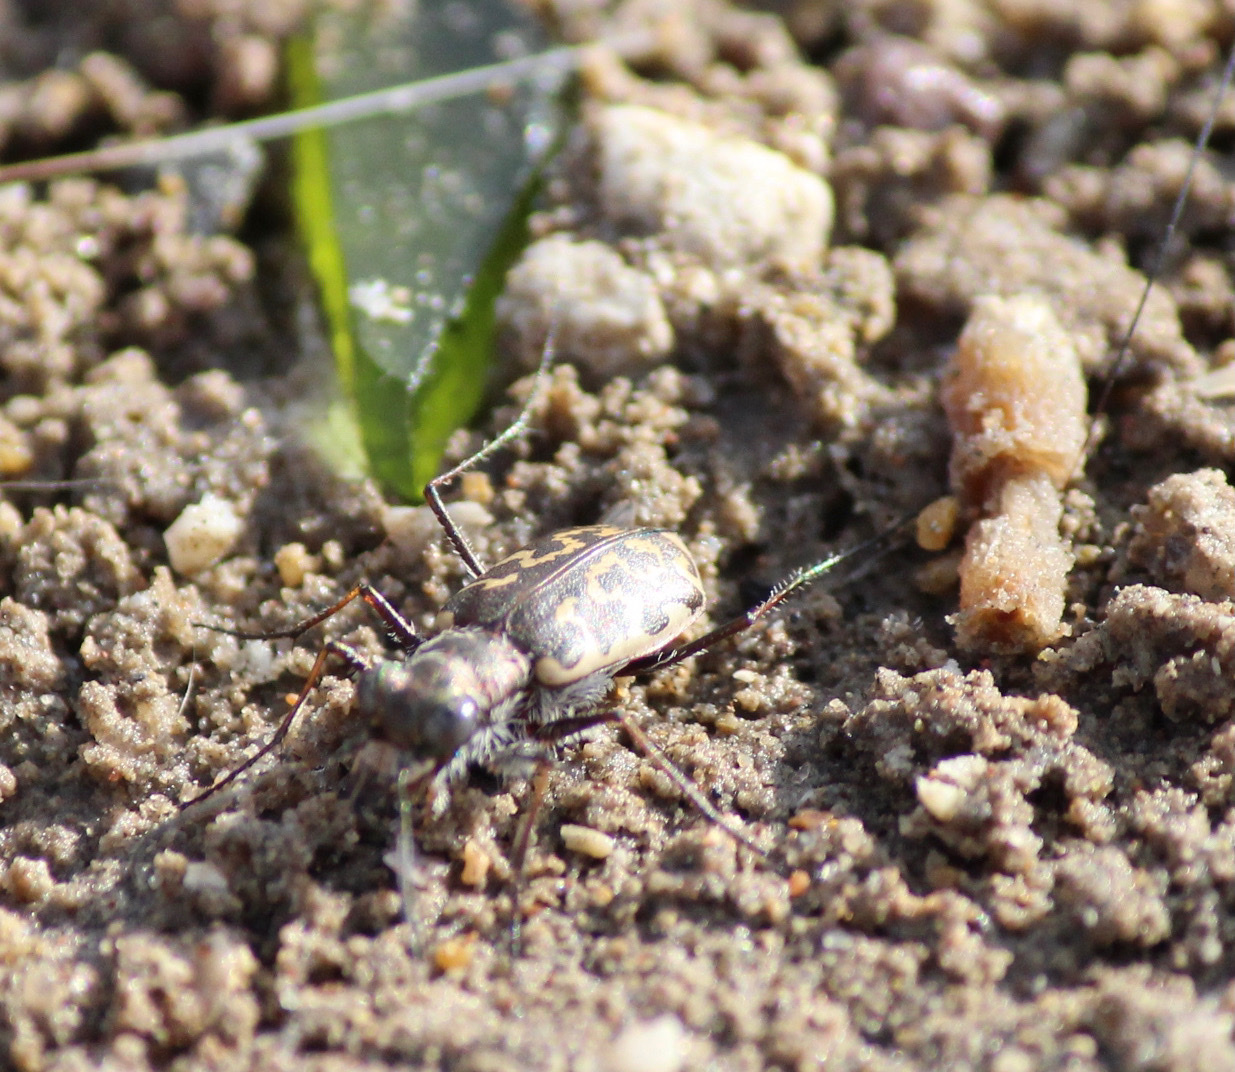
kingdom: Animalia
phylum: Arthropoda
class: Insecta
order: Coleoptera
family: Carabidae
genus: Cicindela
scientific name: Cicindela trifasciata
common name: Mudflat tiger beetle
